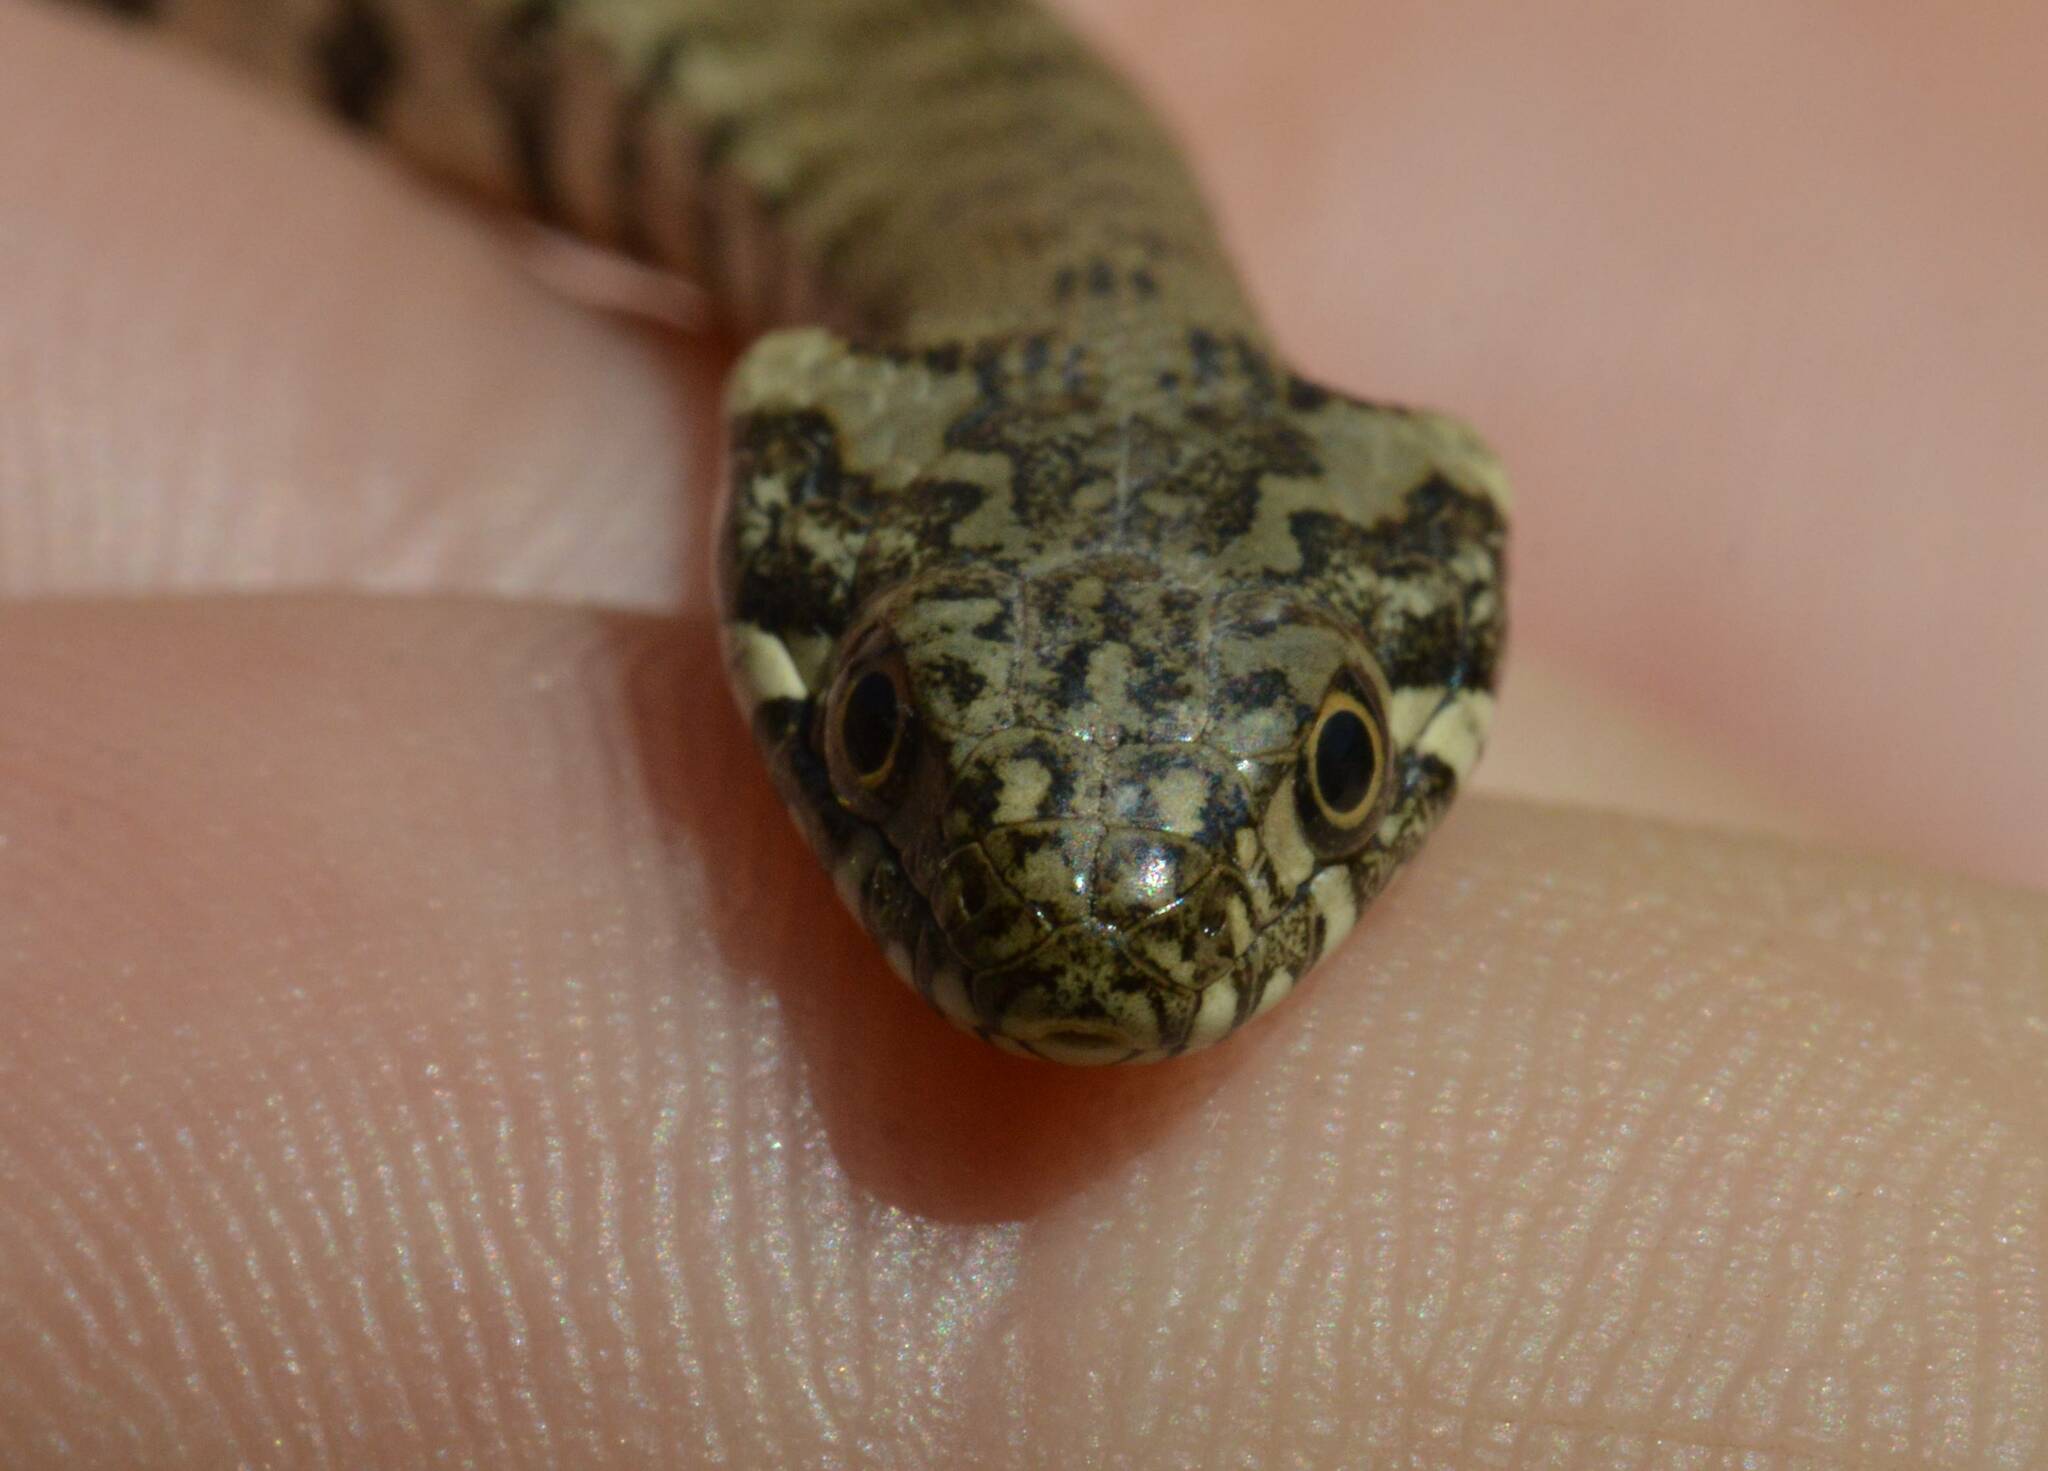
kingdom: Animalia
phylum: Chordata
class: Squamata
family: Colubridae
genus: Natrix
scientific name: Natrix maura
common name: Viperine water snake
